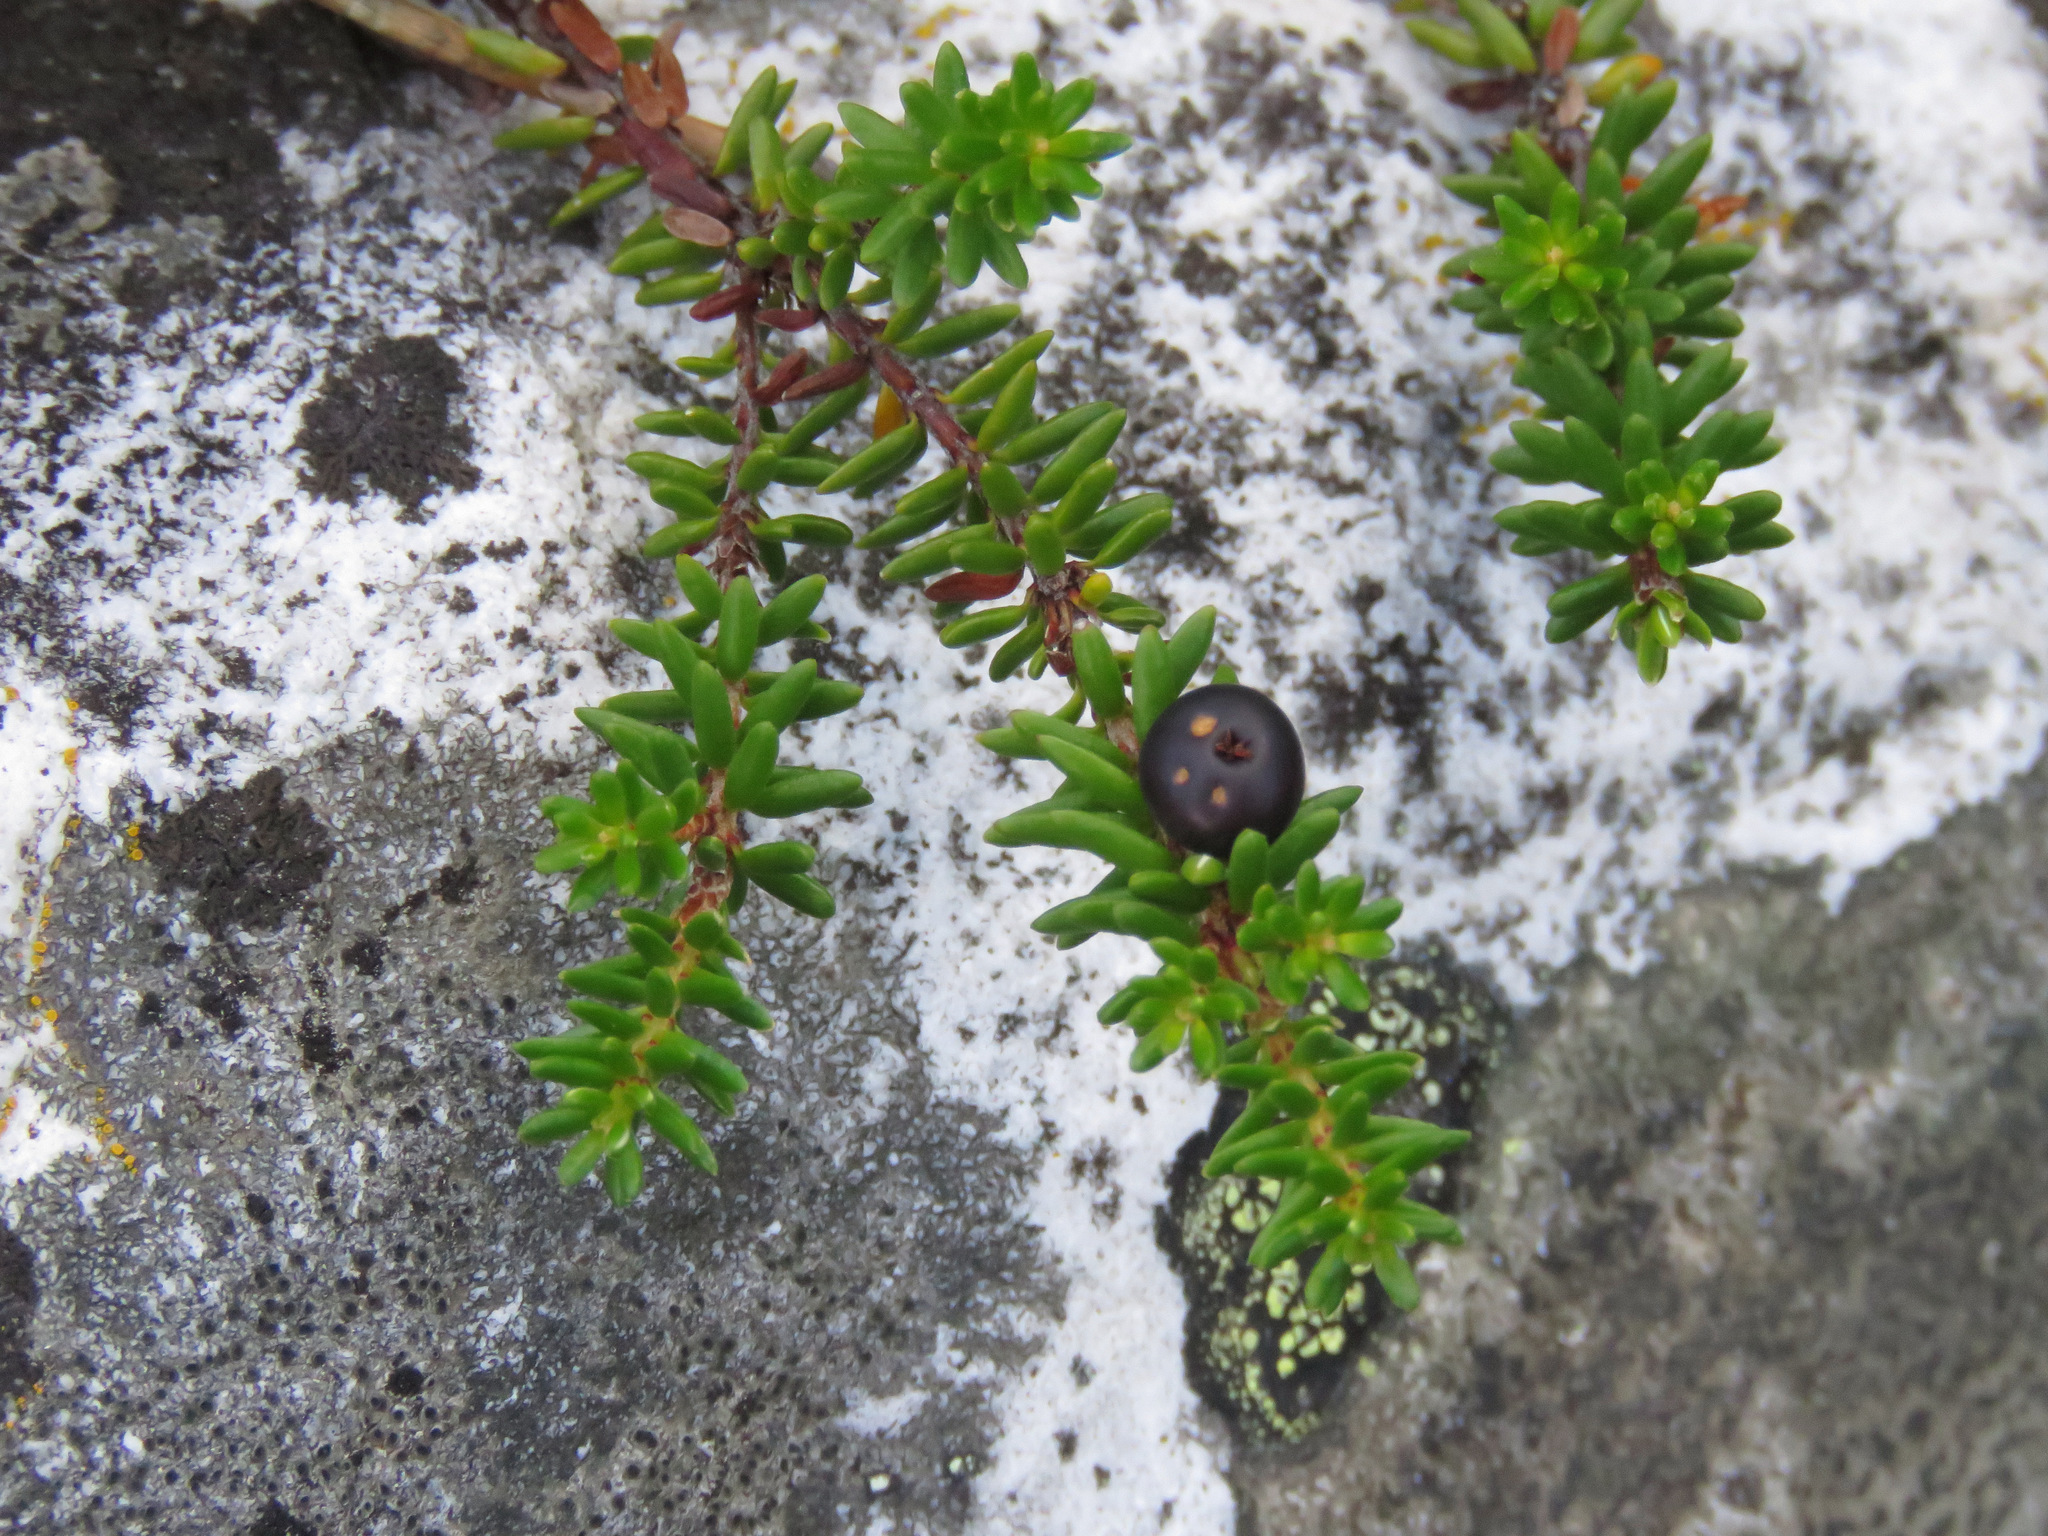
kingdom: Plantae
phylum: Tracheophyta
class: Magnoliopsida
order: Ericales
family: Ericaceae
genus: Empetrum
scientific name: Empetrum nigrum
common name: Black crowberry
